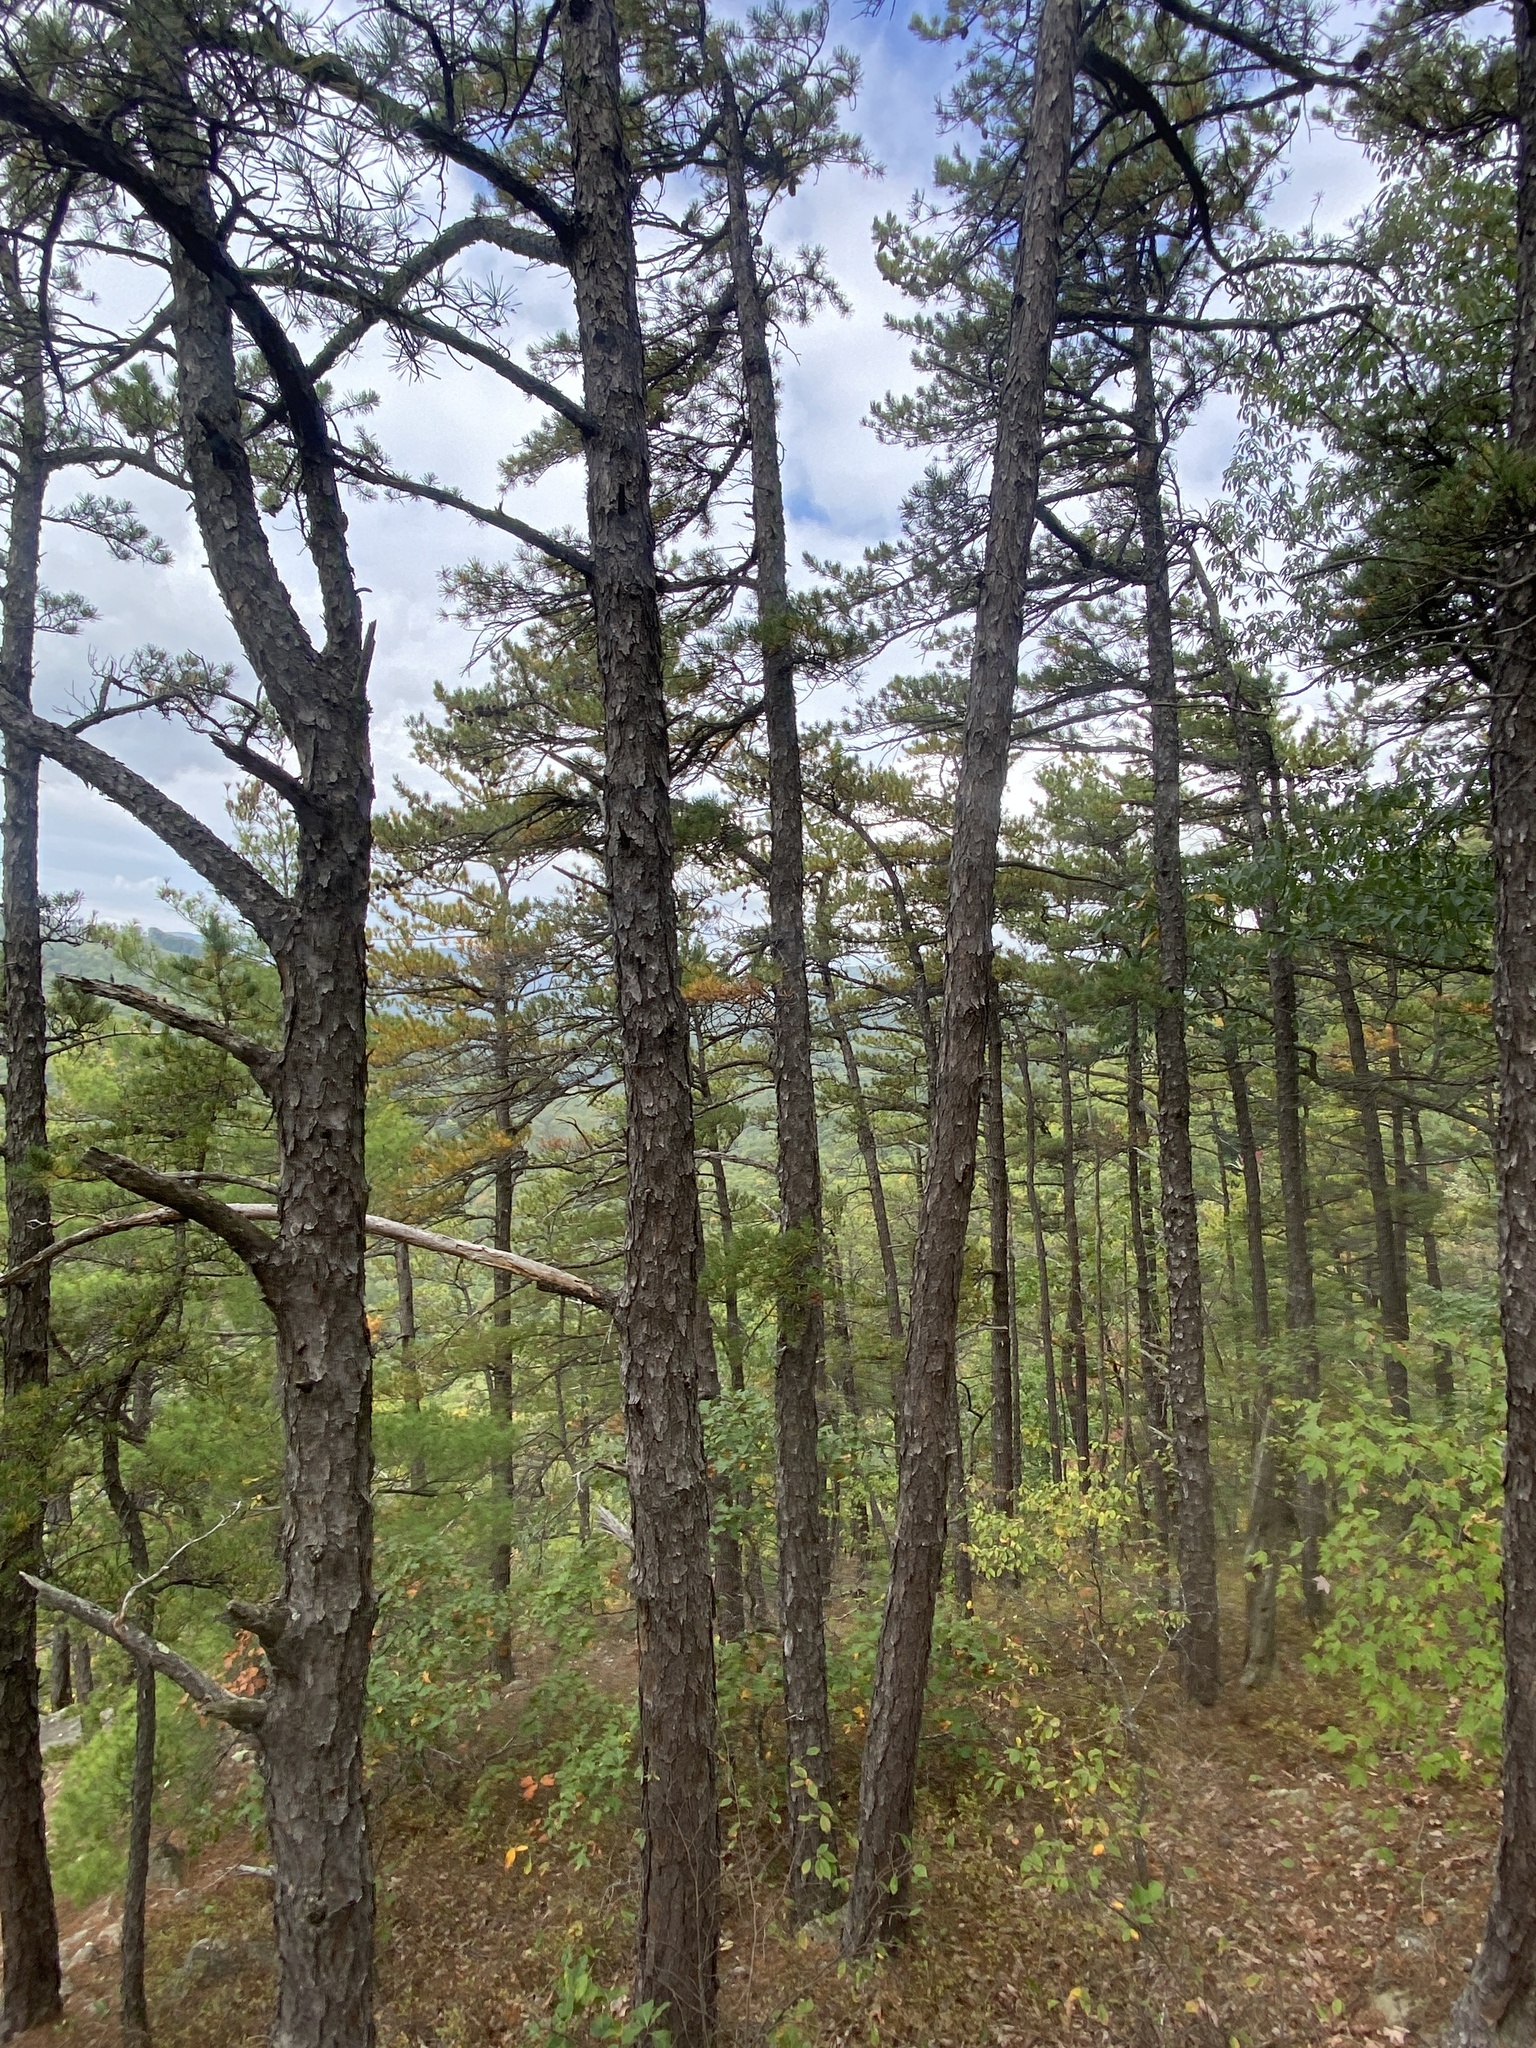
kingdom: Plantae
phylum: Tracheophyta
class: Pinopsida
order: Pinales
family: Pinaceae
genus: Pinus
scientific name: Pinus pungens
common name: Hickory pine
